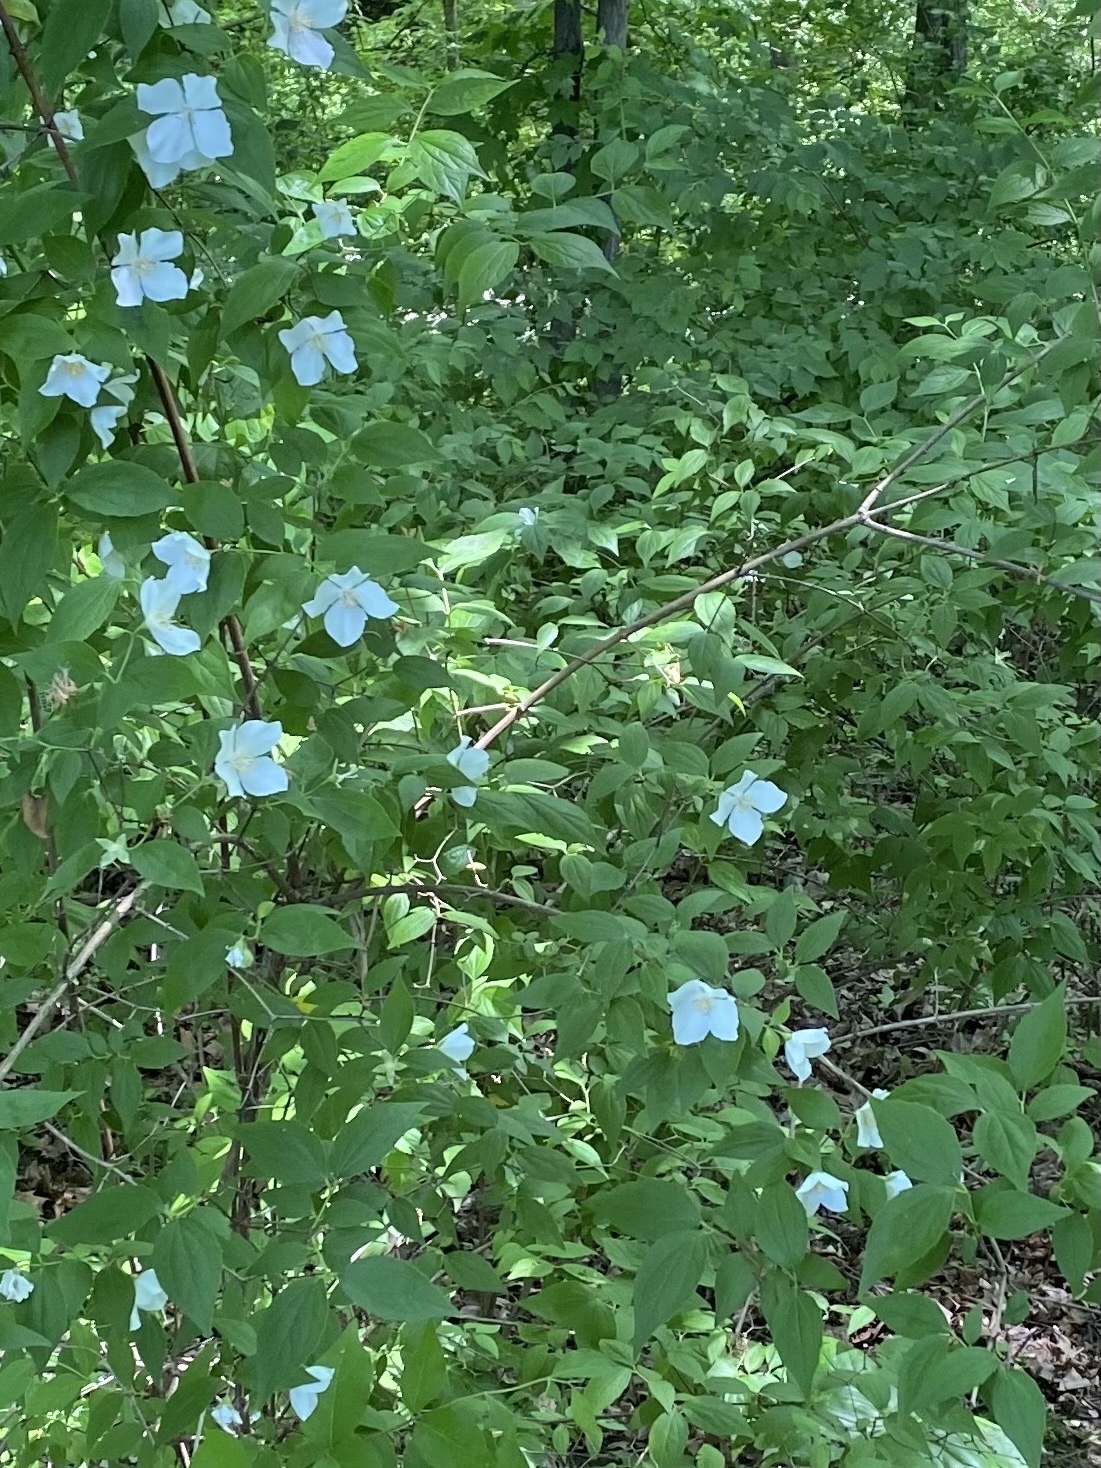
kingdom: Plantae
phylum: Tracheophyta
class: Magnoliopsida
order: Rosales
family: Rosaceae
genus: Rhodotypos
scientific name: Rhodotypos scandens
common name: Jetbead
